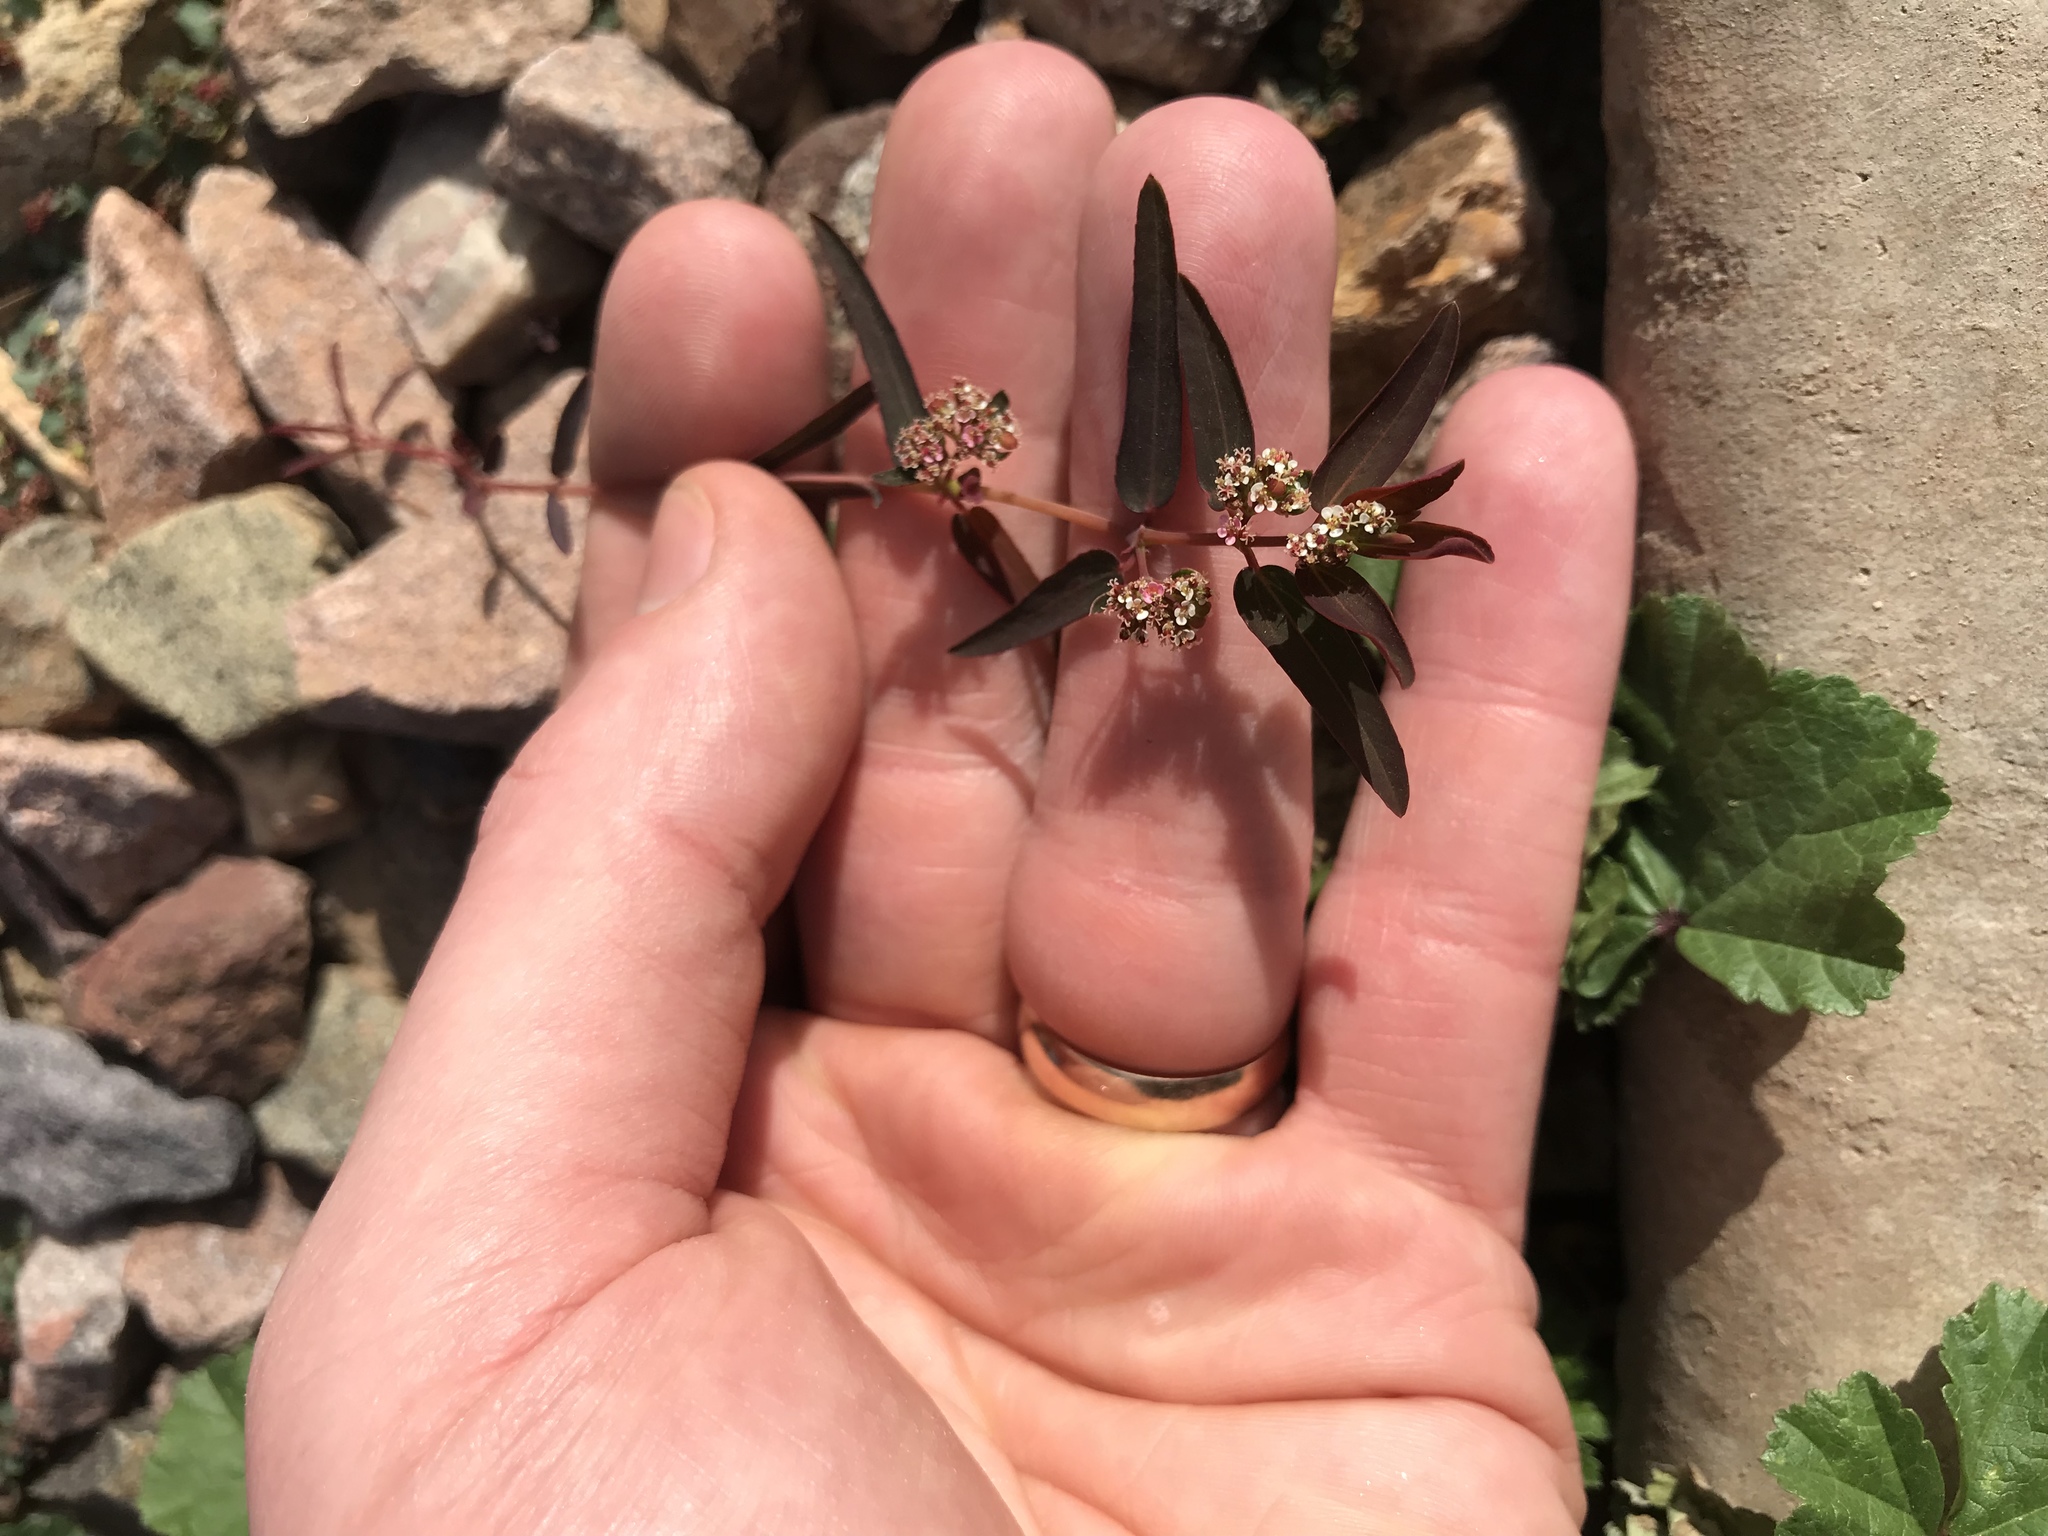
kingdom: Plantae
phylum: Tracheophyta
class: Magnoliopsida
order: Malpighiales
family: Euphorbiaceae
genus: Euphorbia
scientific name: Euphorbia hypericifolia
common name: Graceful sandmat
